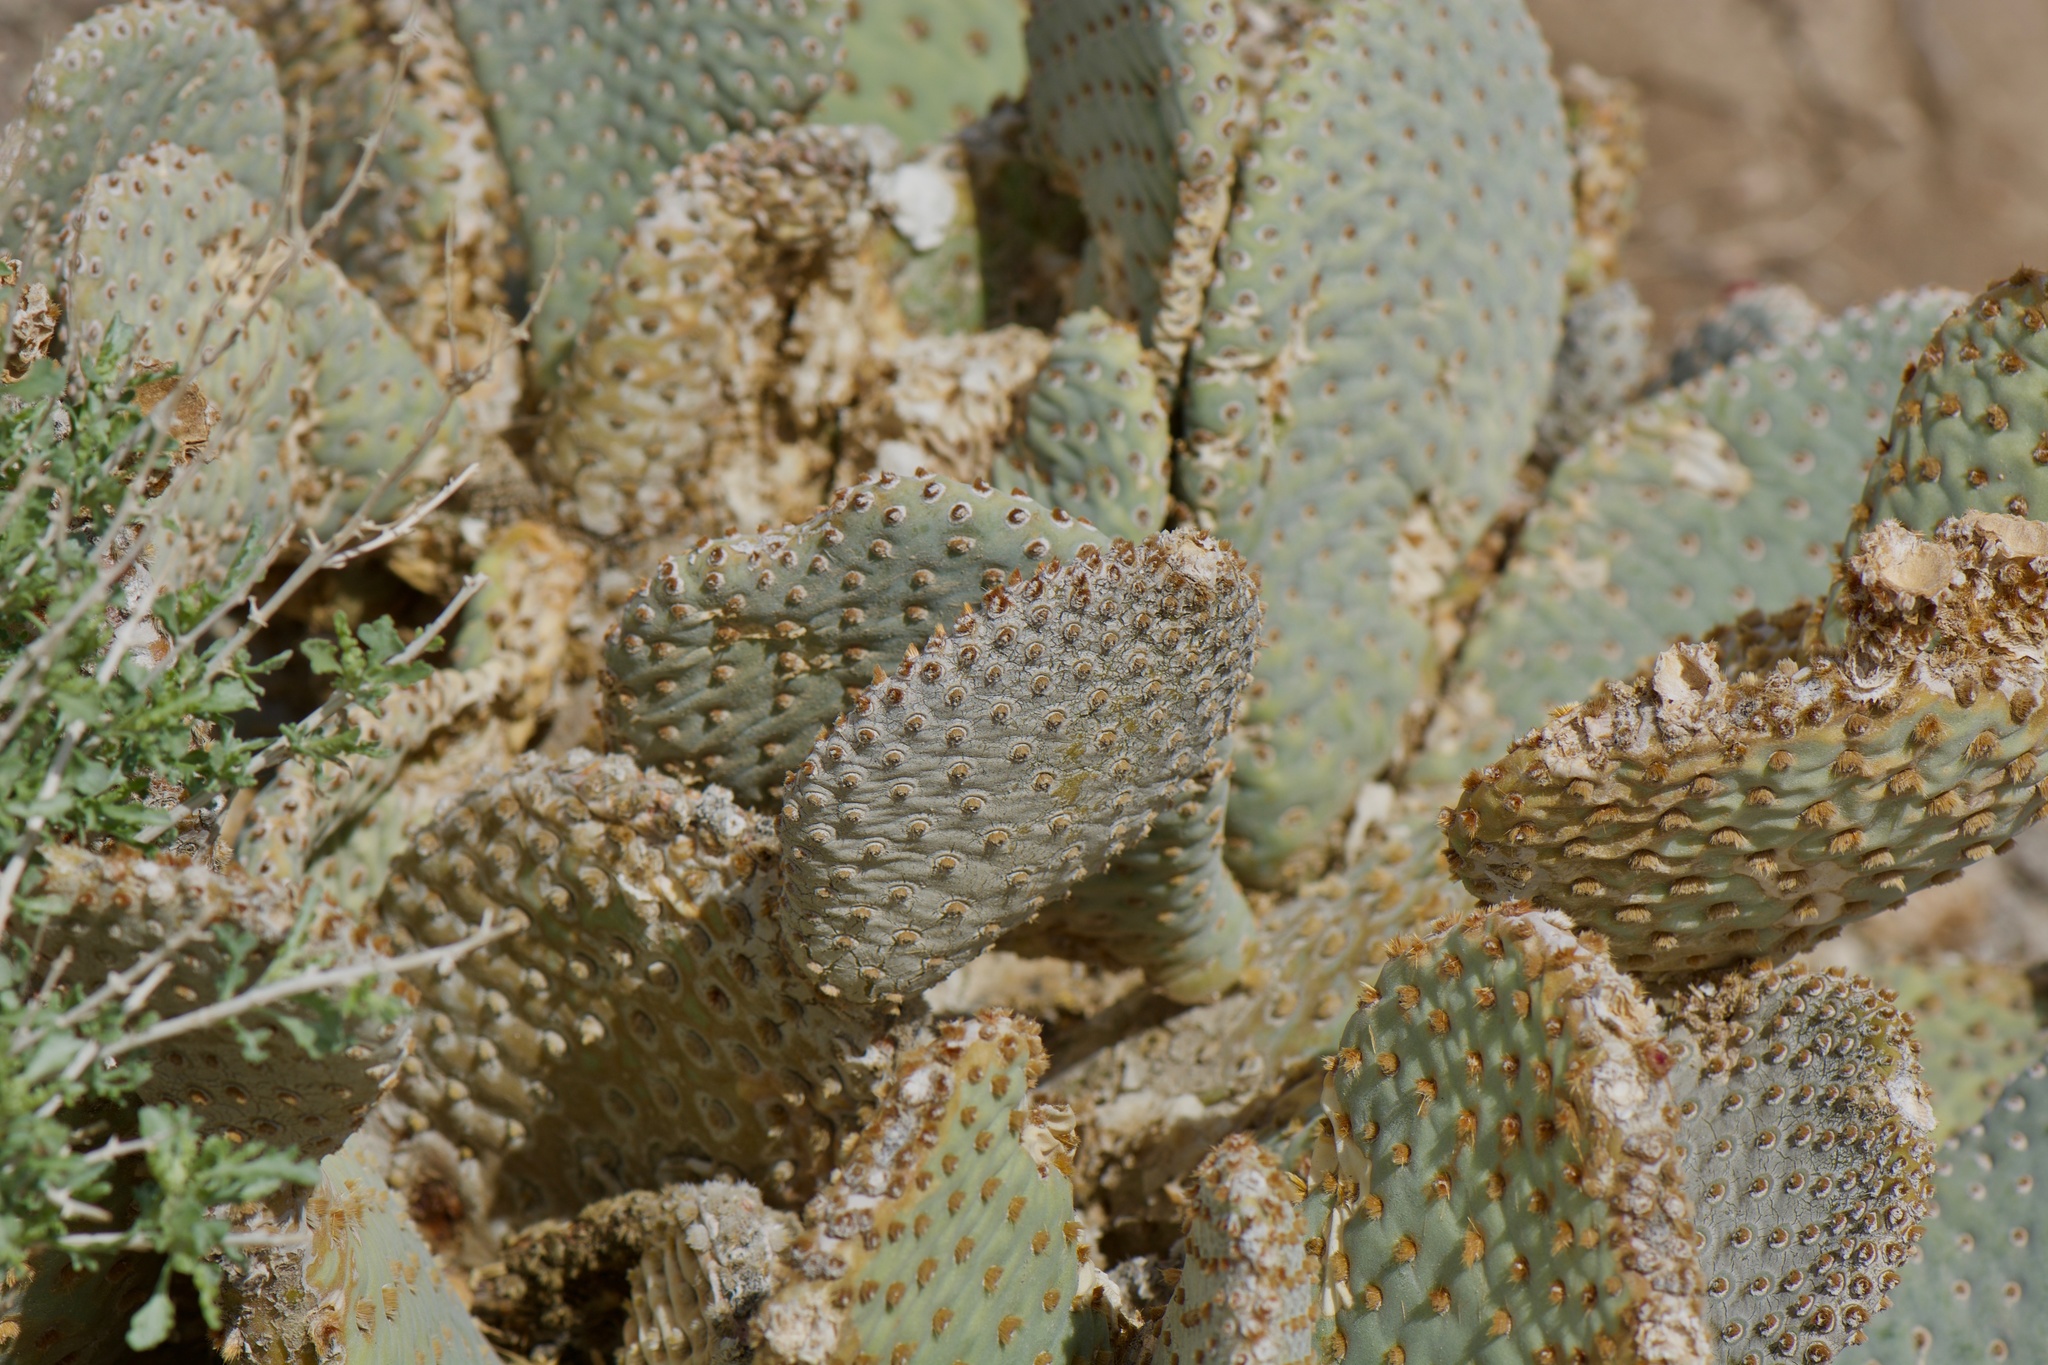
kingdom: Plantae
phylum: Tracheophyta
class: Magnoliopsida
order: Caryophyllales
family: Cactaceae
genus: Opuntia
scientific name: Opuntia basilaris
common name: Beavertail prickly-pear
